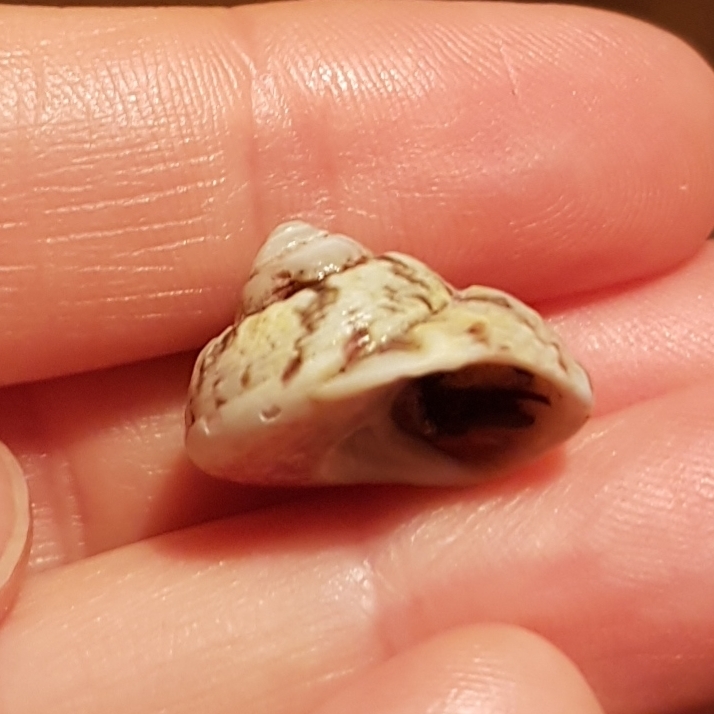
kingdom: Animalia
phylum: Mollusca
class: Gastropoda
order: Trochida
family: Trochidae
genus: Gibbula
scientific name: Gibbula magus
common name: Turban top shell
